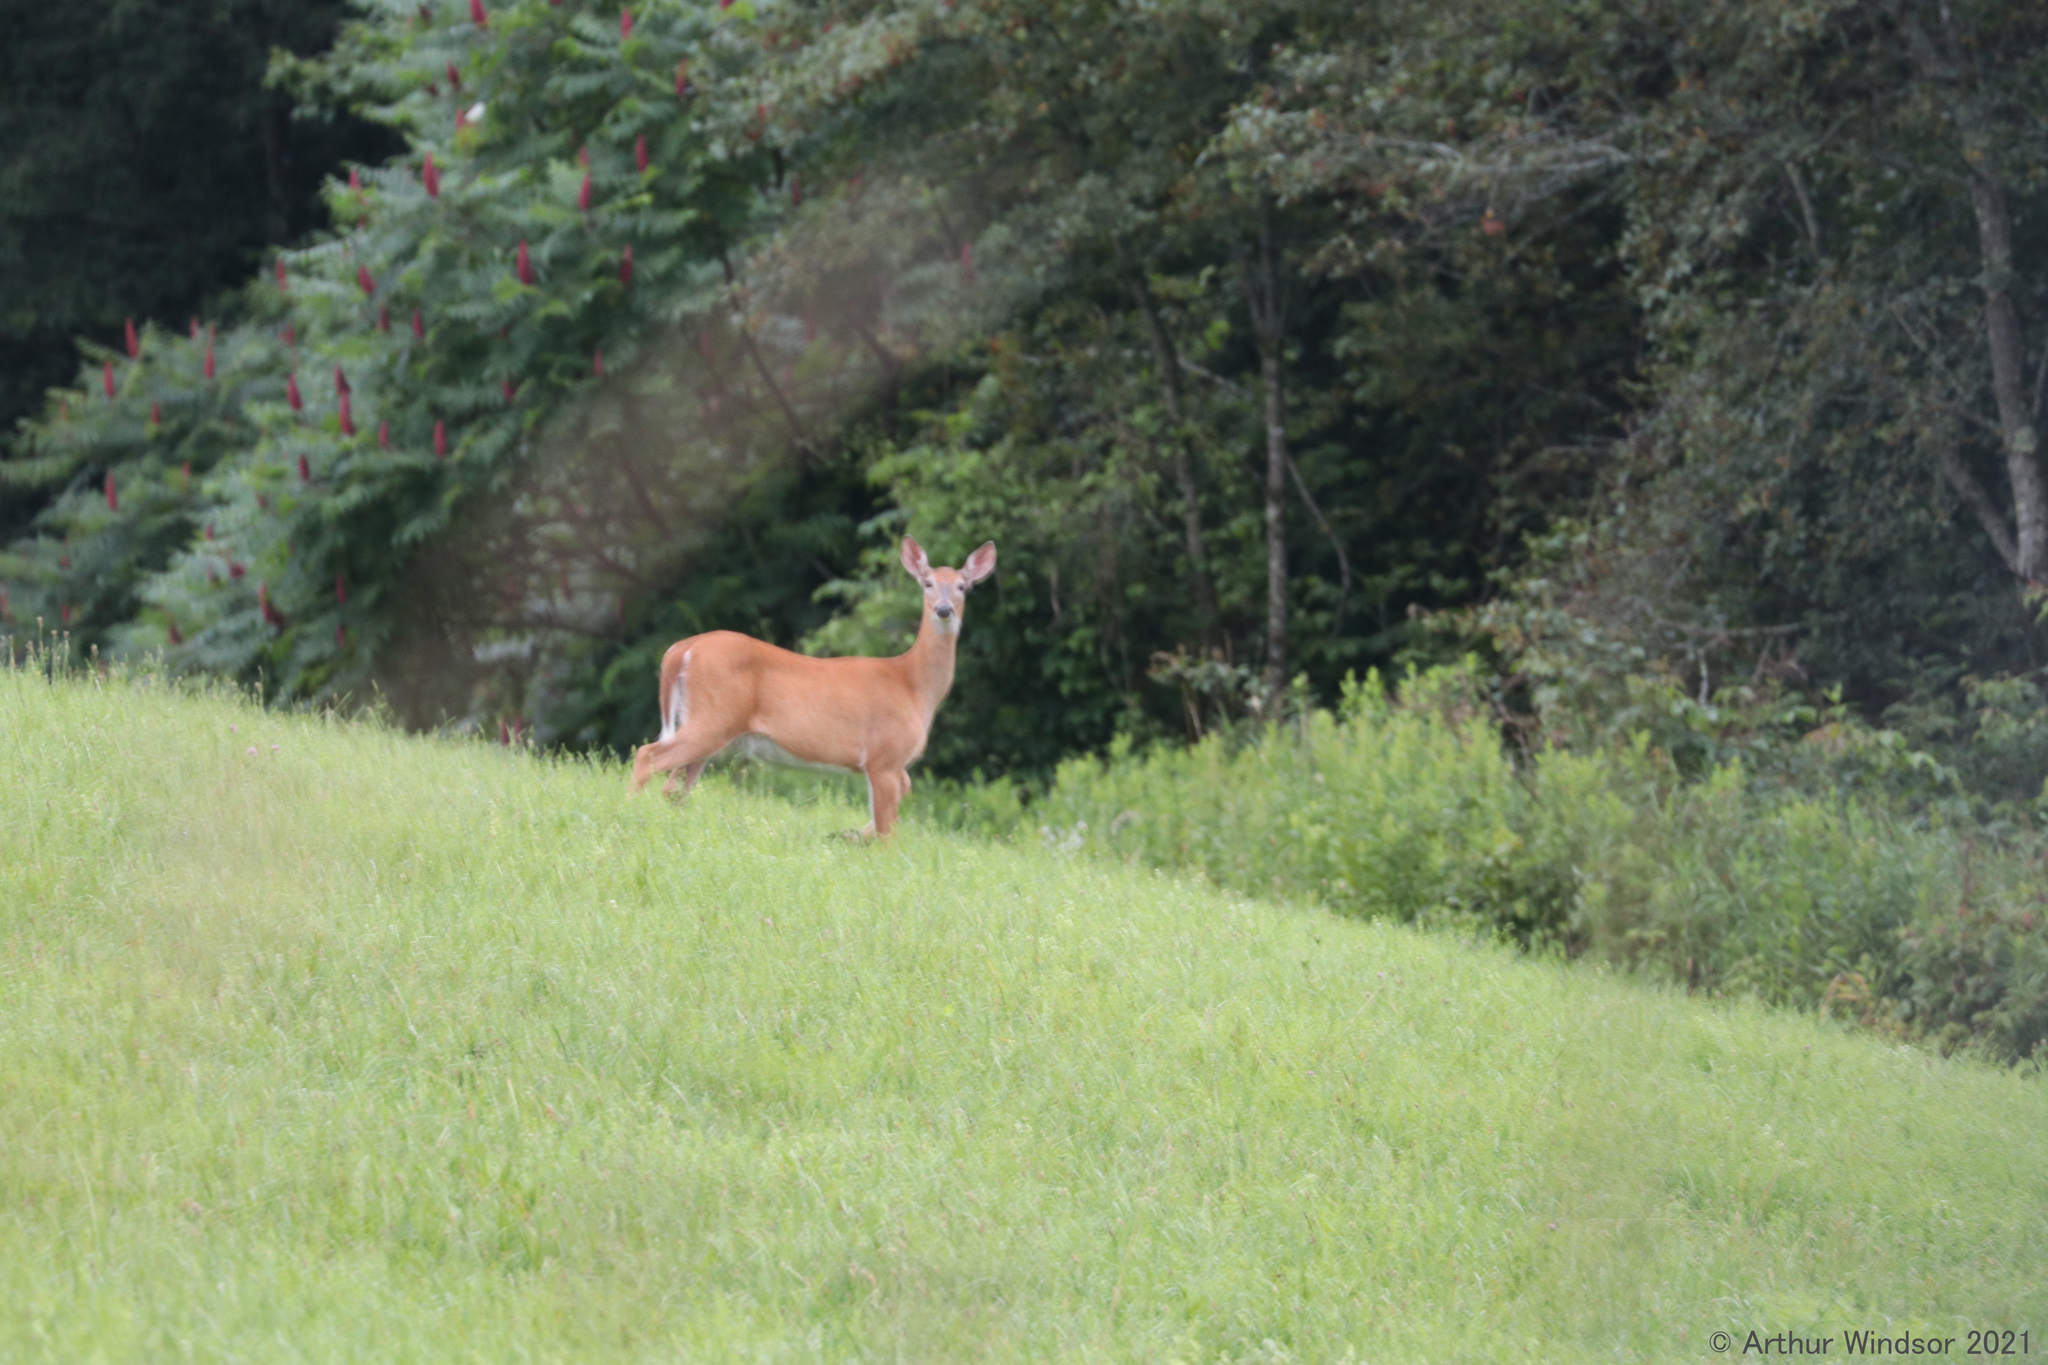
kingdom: Animalia
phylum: Chordata
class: Mammalia
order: Artiodactyla
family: Cervidae
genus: Odocoileus
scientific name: Odocoileus virginianus
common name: White-tailed deer
